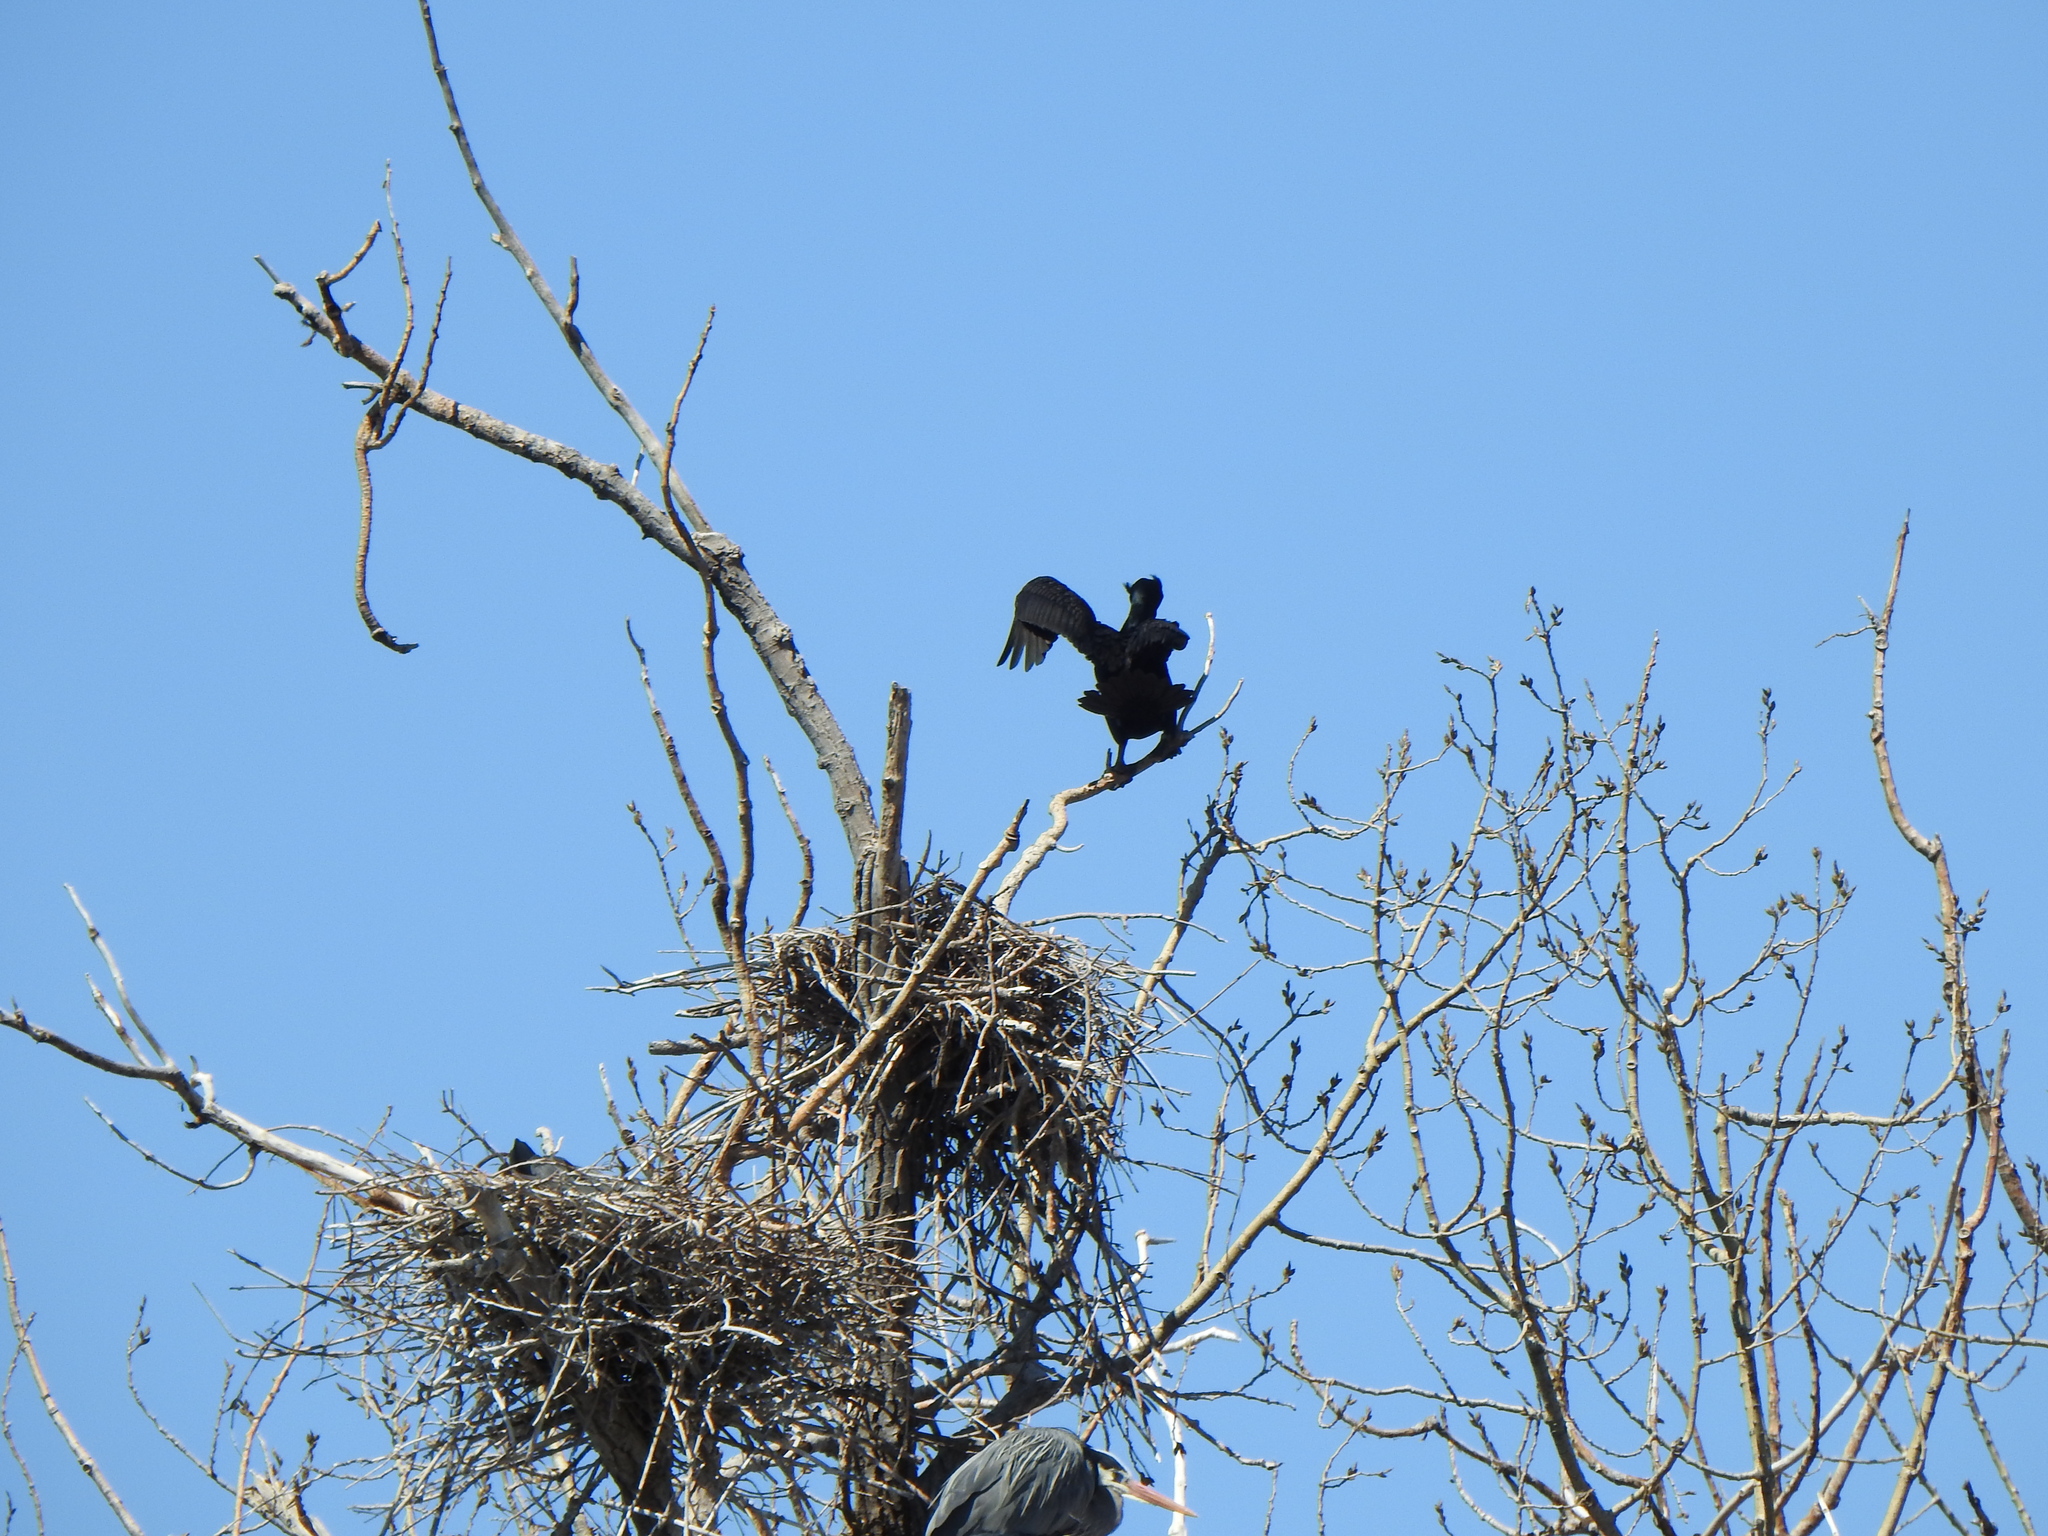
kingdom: Animalia
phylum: Chordata
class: Aves
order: Suliformes
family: Phalacrocoracidae
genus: Phalacrocorax
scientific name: Phalacrocorax auritus
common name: Double-crested cormorant
